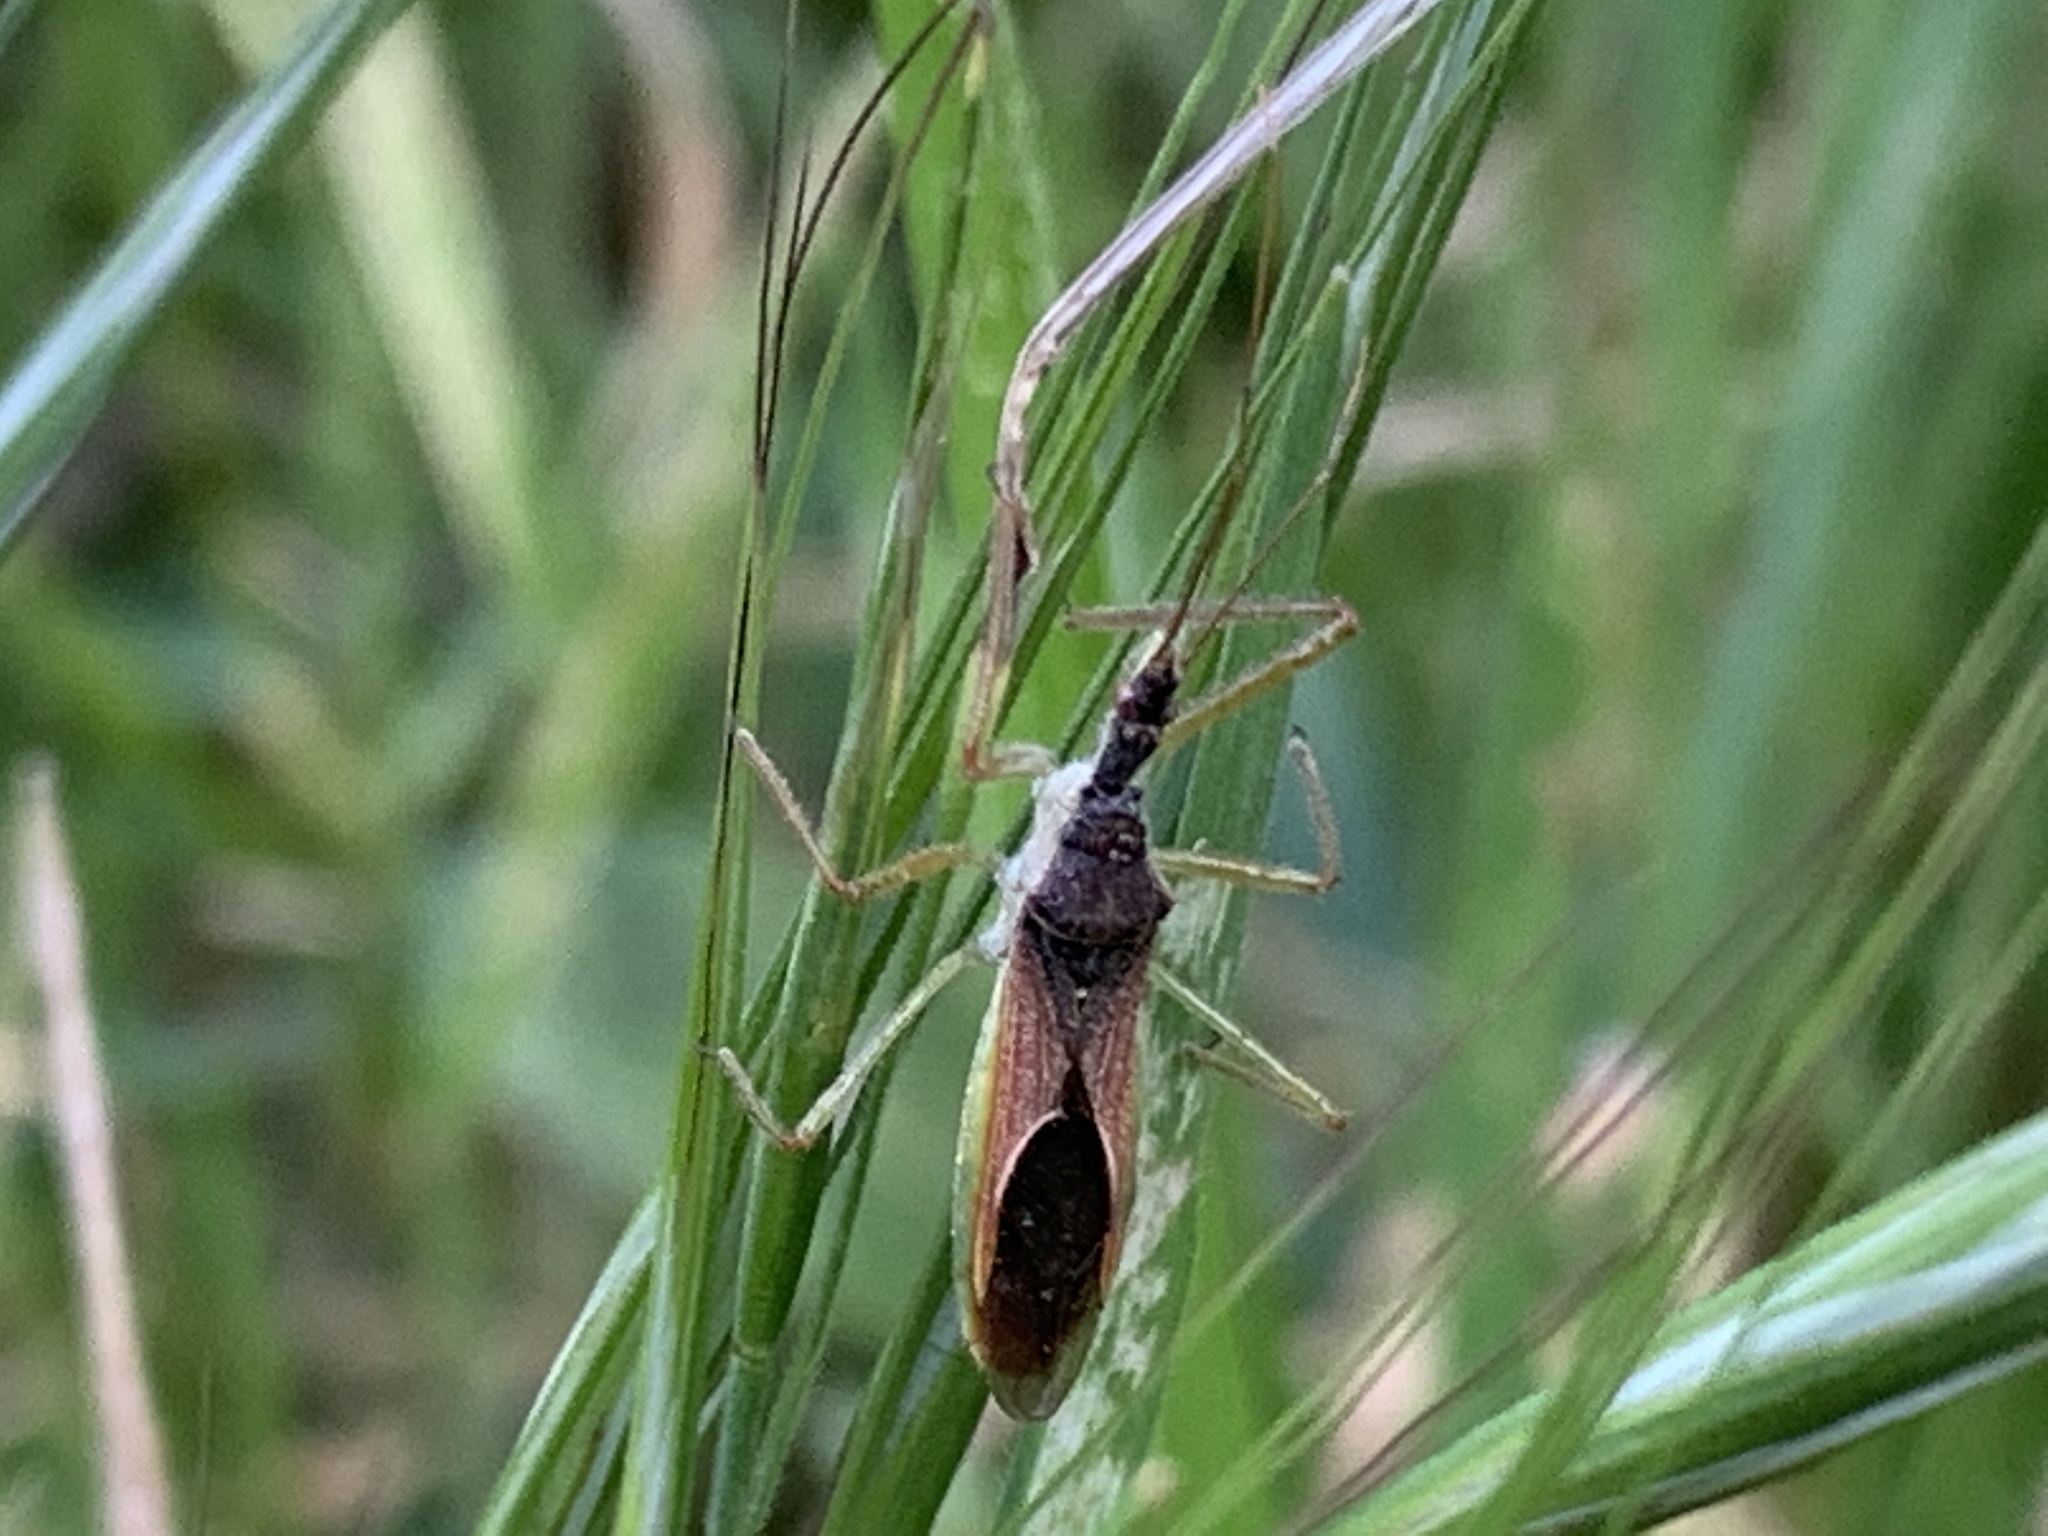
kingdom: Animalia
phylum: Arthropoda
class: Insecta
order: Hemiptera
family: Reduviidae
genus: Zelus
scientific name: Zelus renardii
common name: Assassin bug
